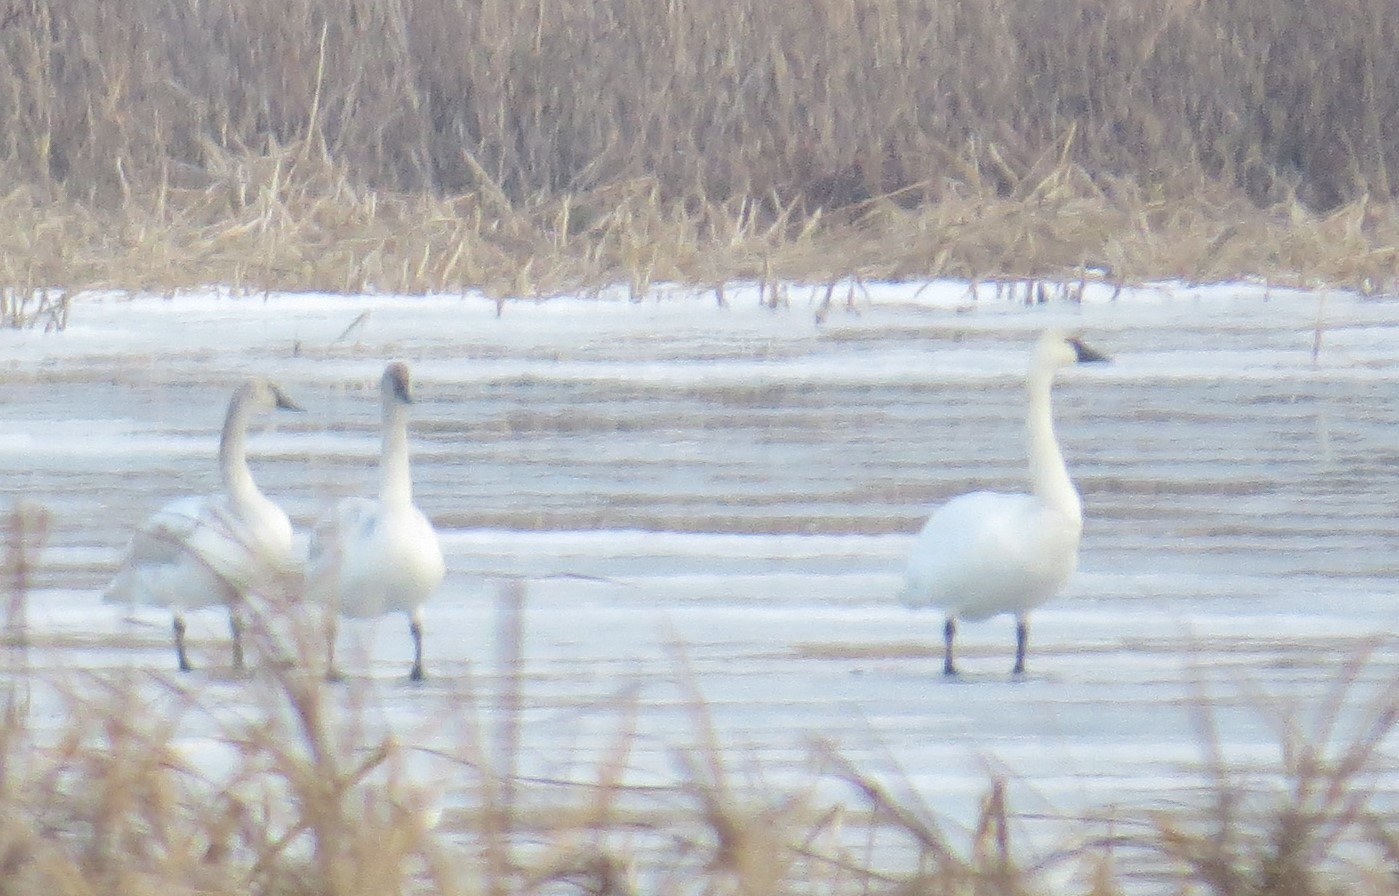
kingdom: Animalia
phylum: Chordata
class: Aves
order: Anseriformes
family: Anatidae
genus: Cygnus
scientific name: Cygnus buccinator
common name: Trumpeter swan
